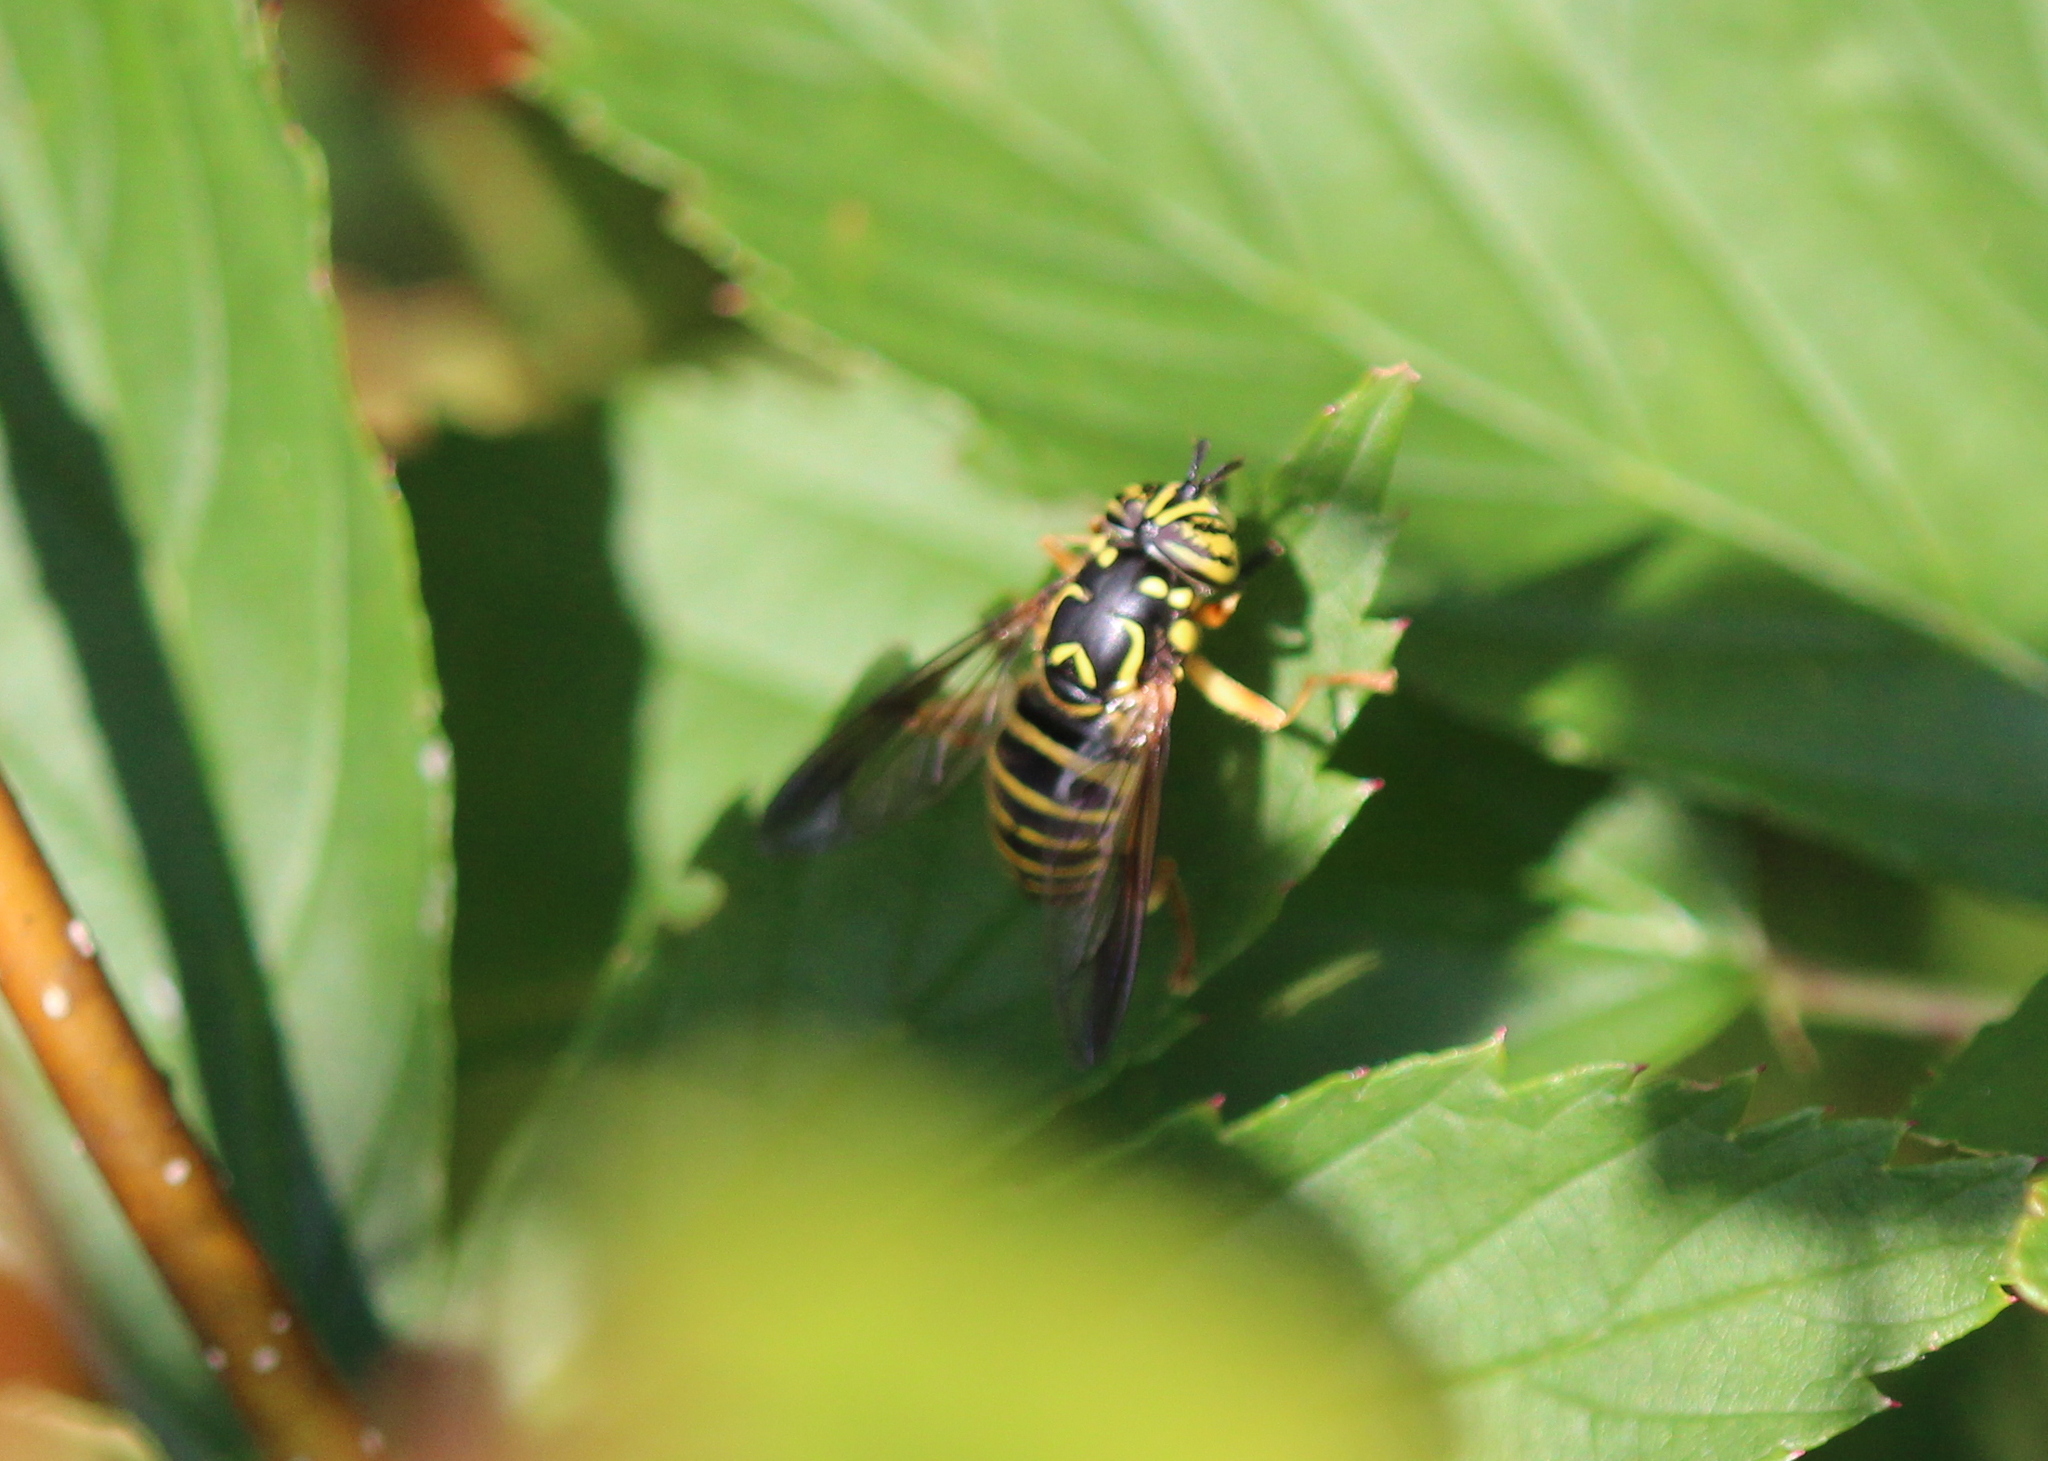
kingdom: Animalia
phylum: Arthropoda
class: Insecta
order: Diptera
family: Syrphidae
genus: Spilomyia
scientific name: Spilomyia longicornis
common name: Eastern hornet fly
